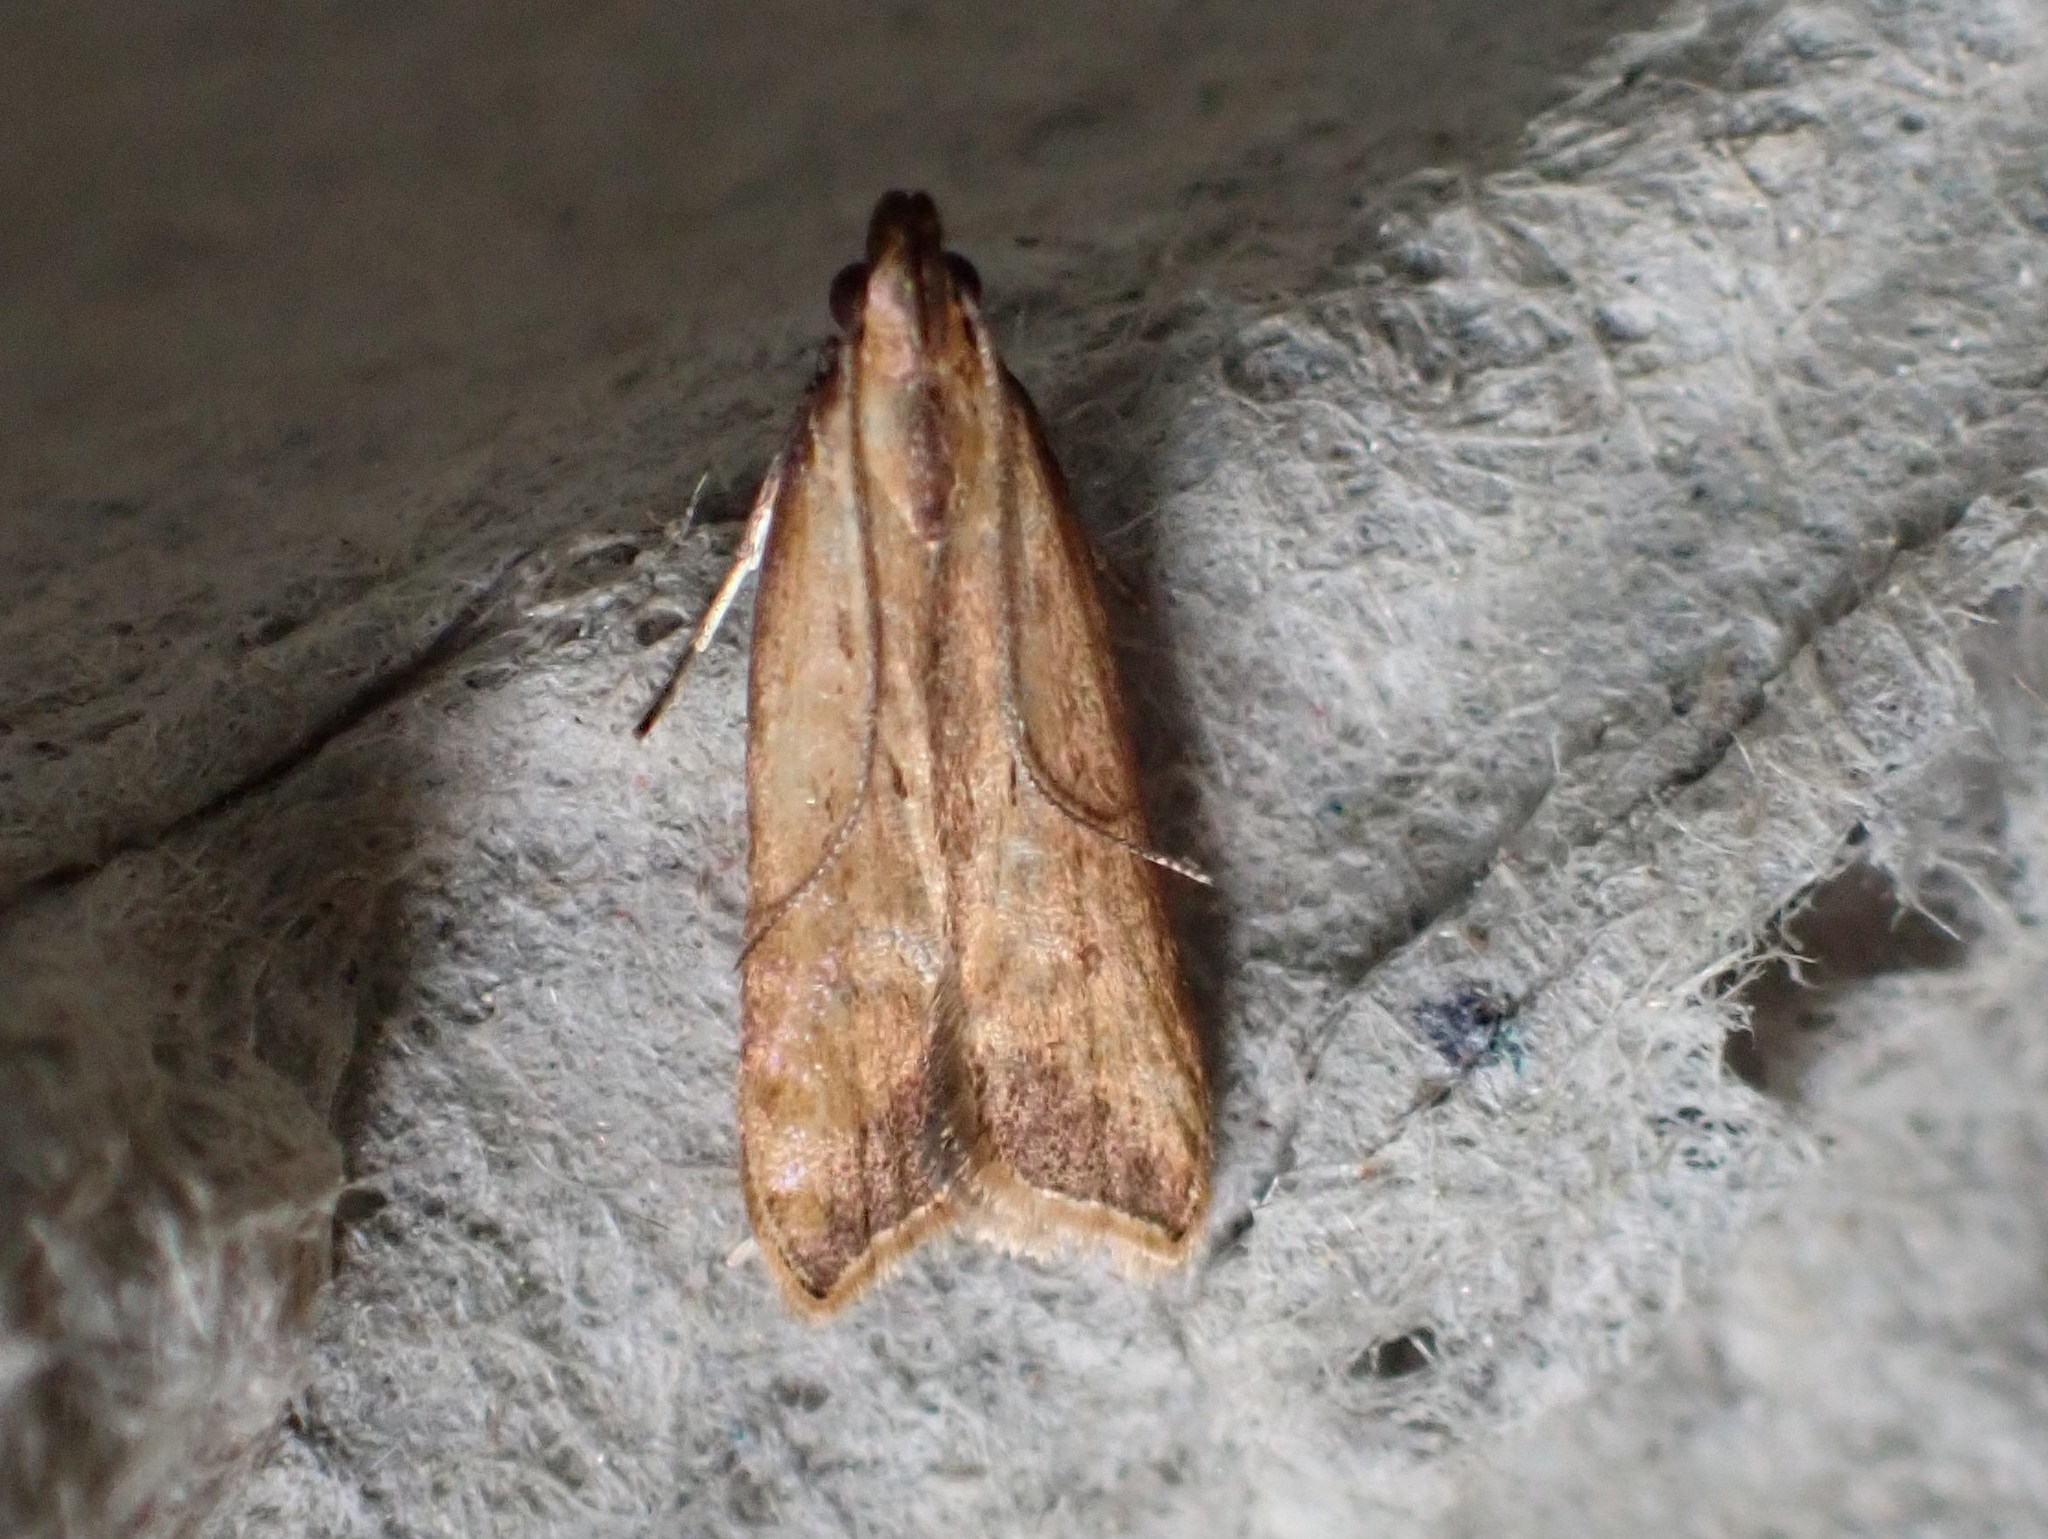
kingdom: Animalia
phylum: Arthropoda
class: Insecta
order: Lepidoptera
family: Gelechiidae
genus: Dichomeris
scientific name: Dichomeris heriguronis
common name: Black-edged dichomeris moth
